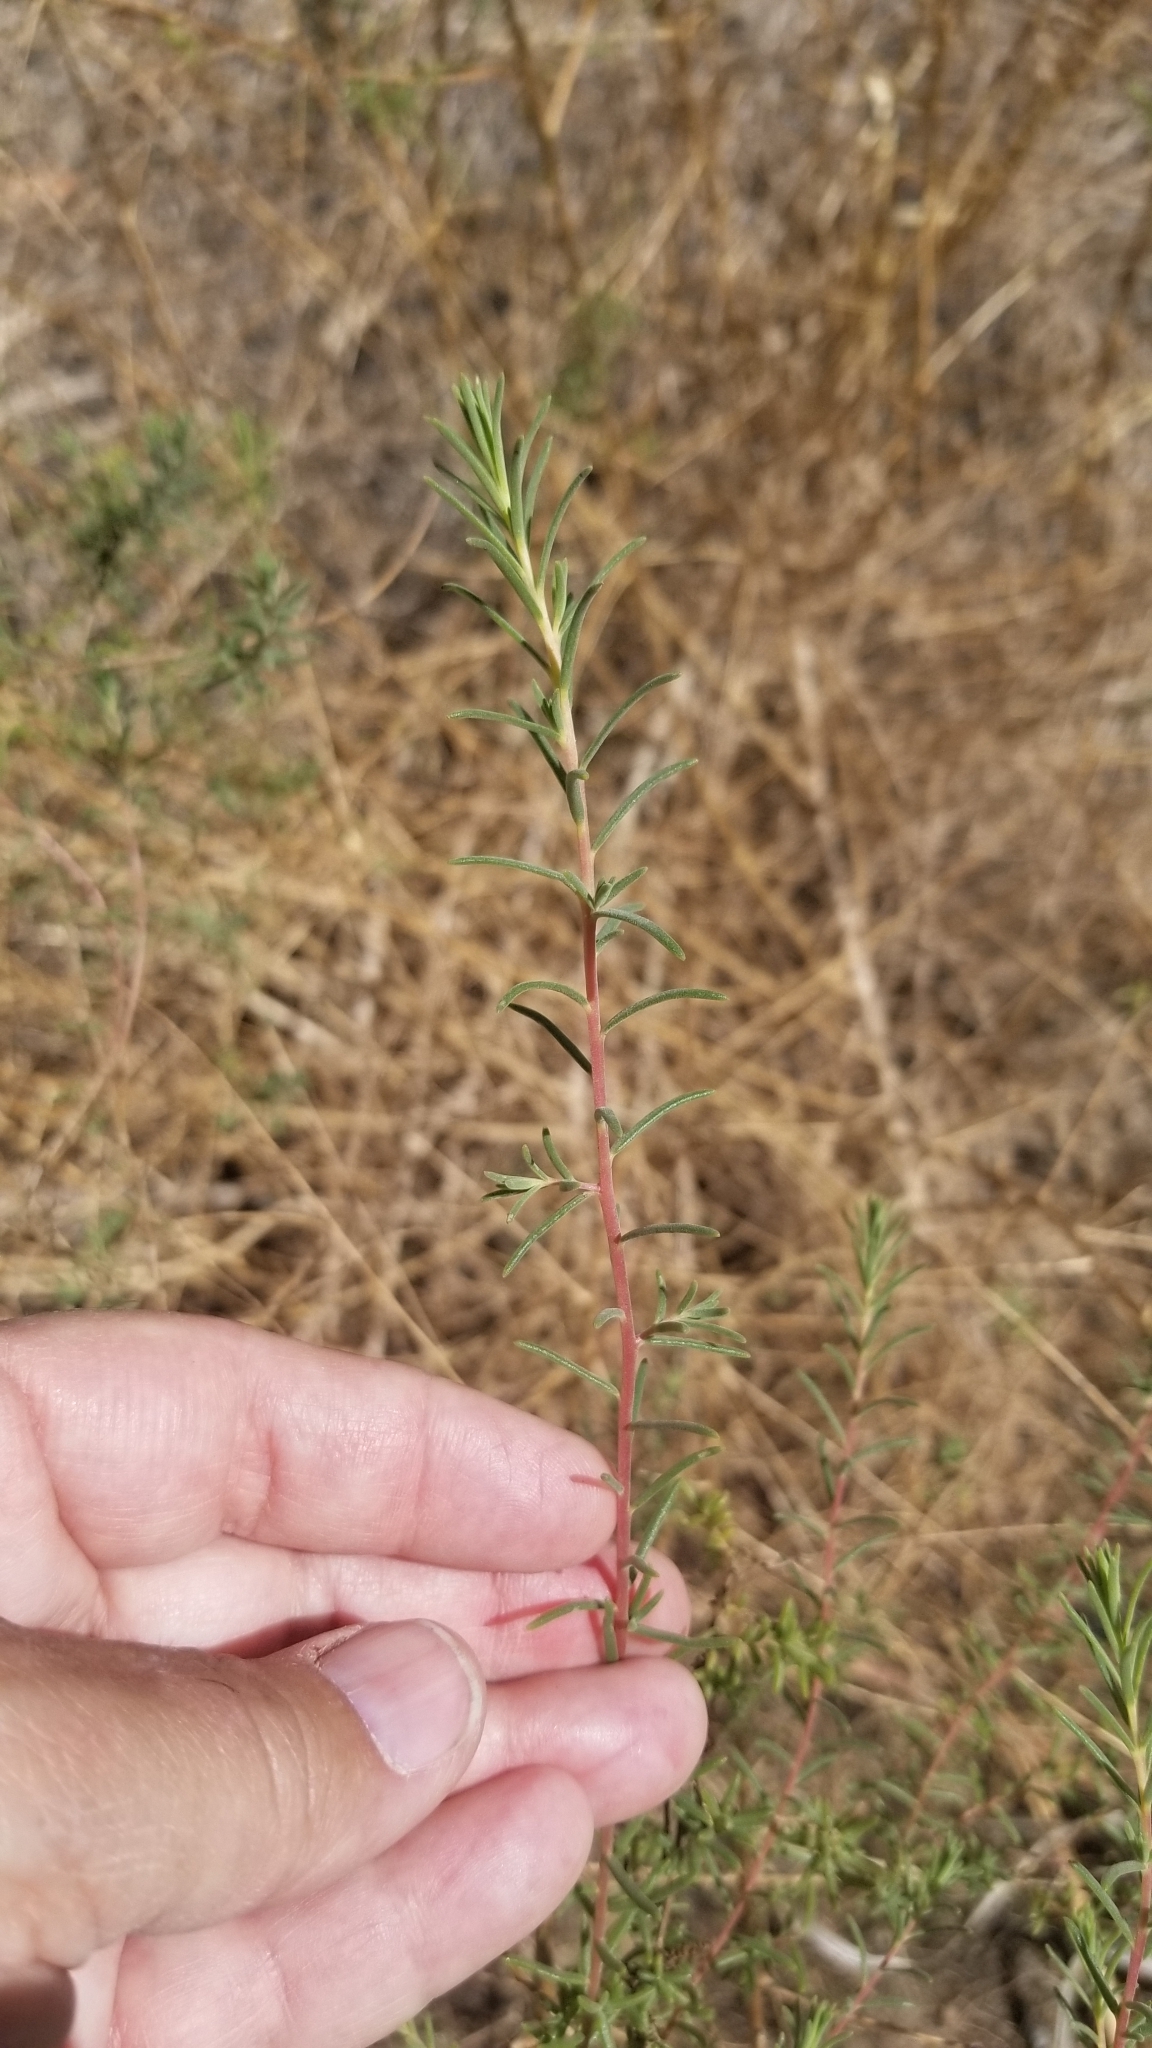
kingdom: Plantae
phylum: Tracheophyta
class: Magnoliopsida
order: Caryophyllales
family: Amaranthaceae
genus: Suaeda
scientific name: Suaeda nigra
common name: Bush seepweed
